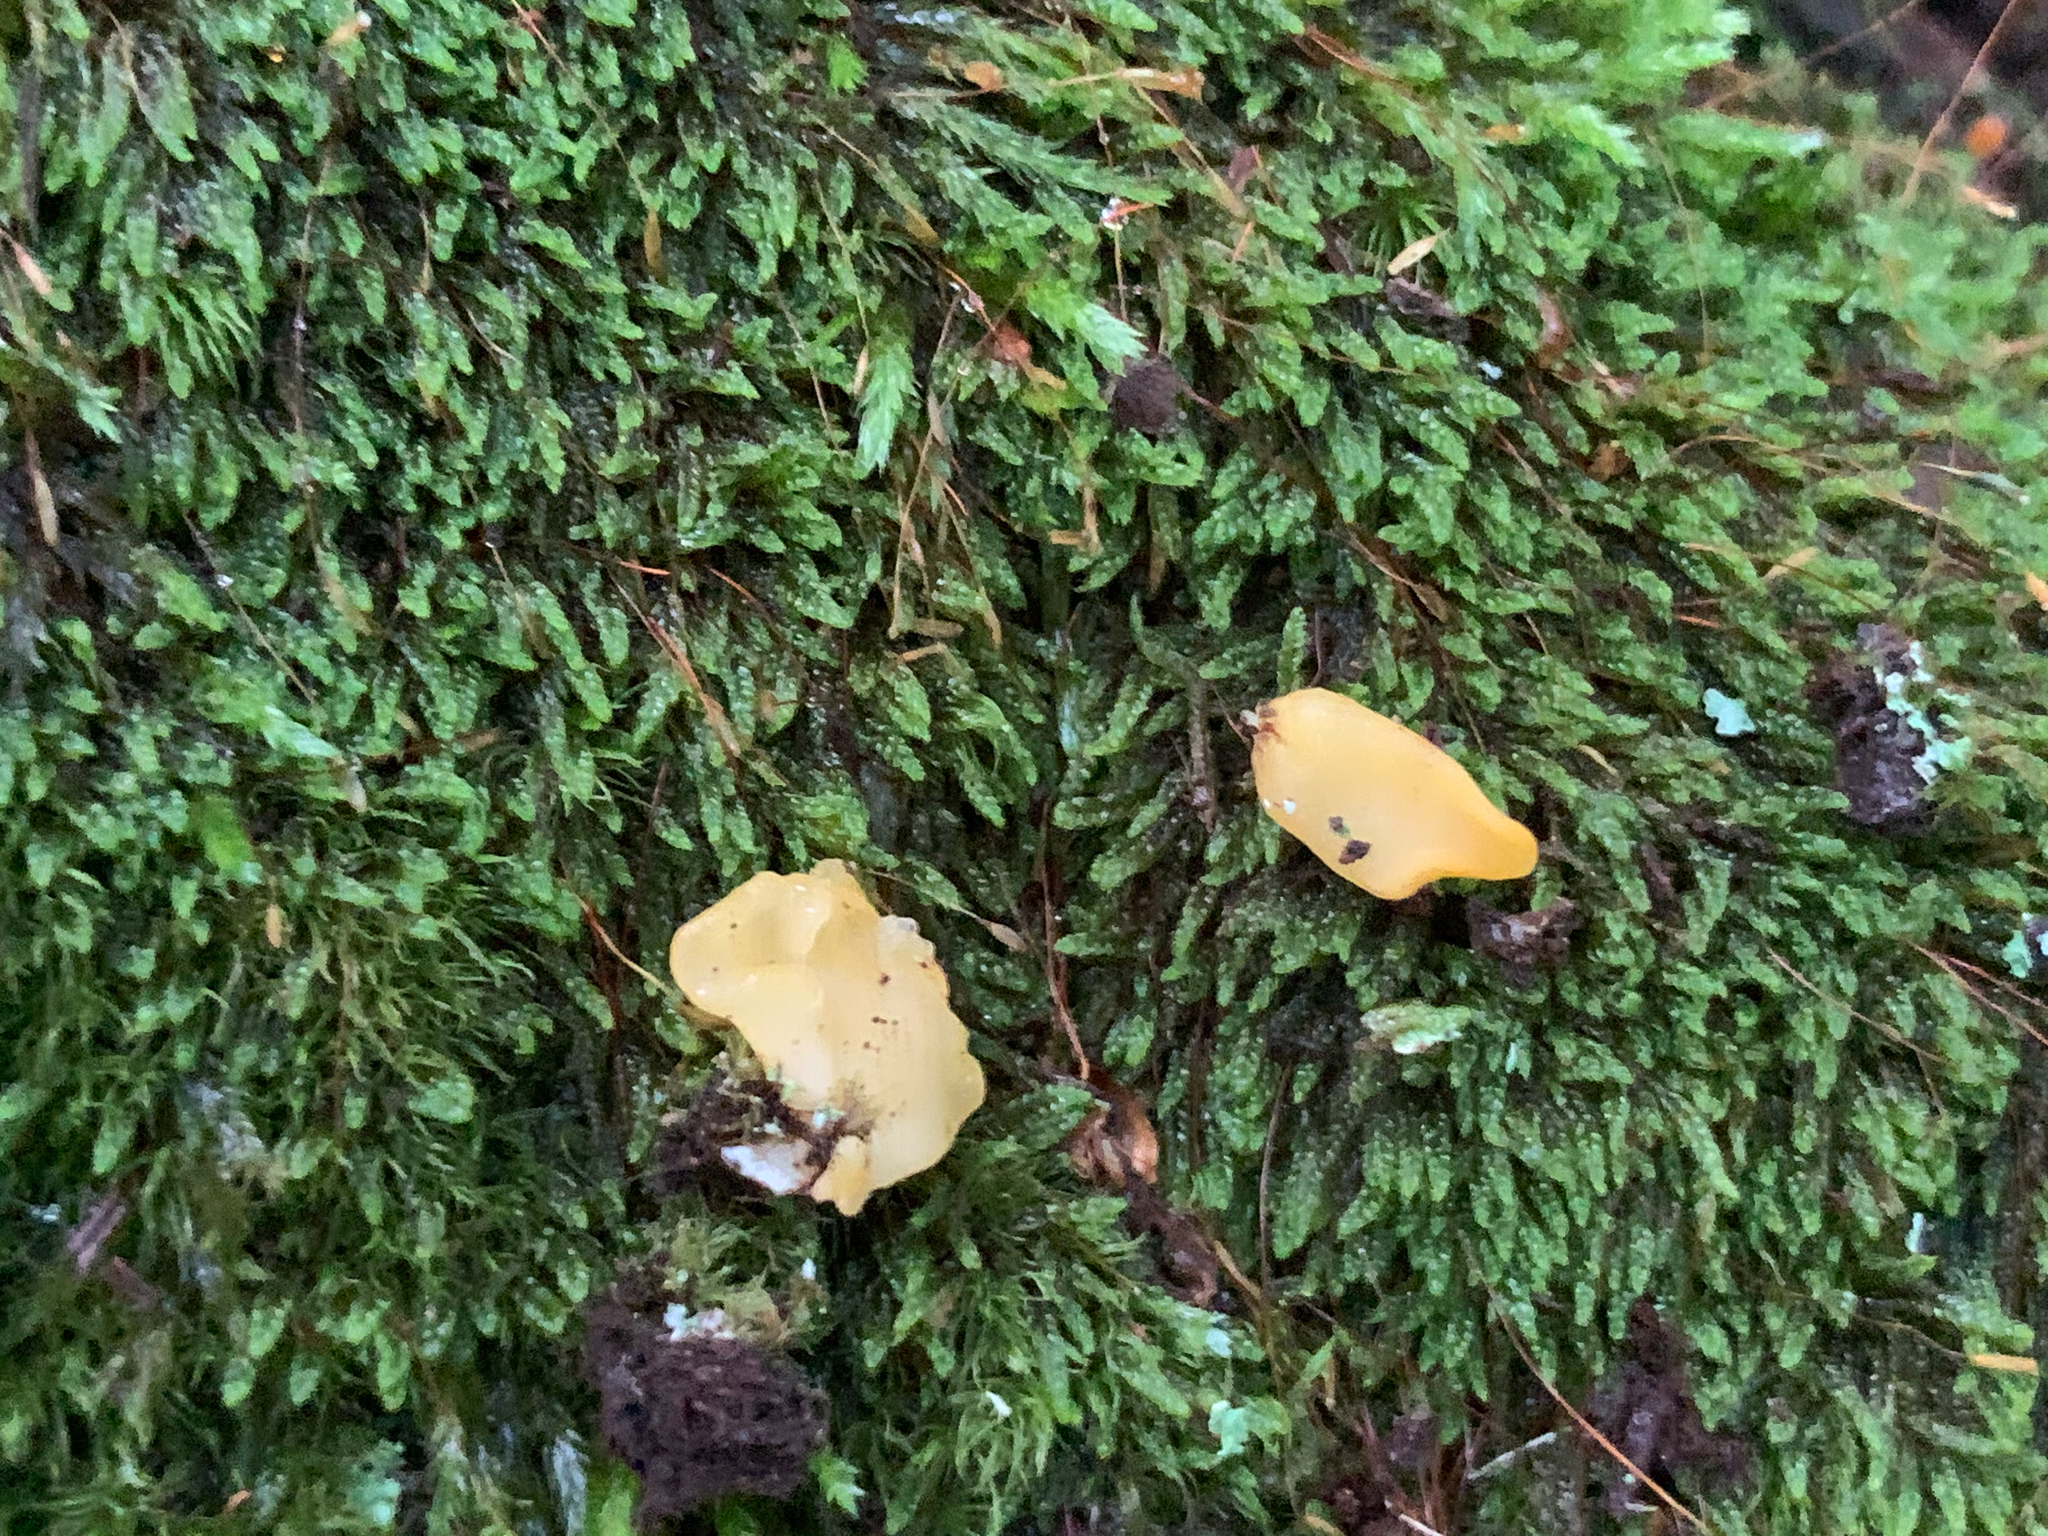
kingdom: Fungi
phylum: Basidiomycota
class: Dacrymycetes
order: Dacrymycetales
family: Dacrymycetaceae
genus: Dacrymyces
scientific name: Dacrymyces spathularius
